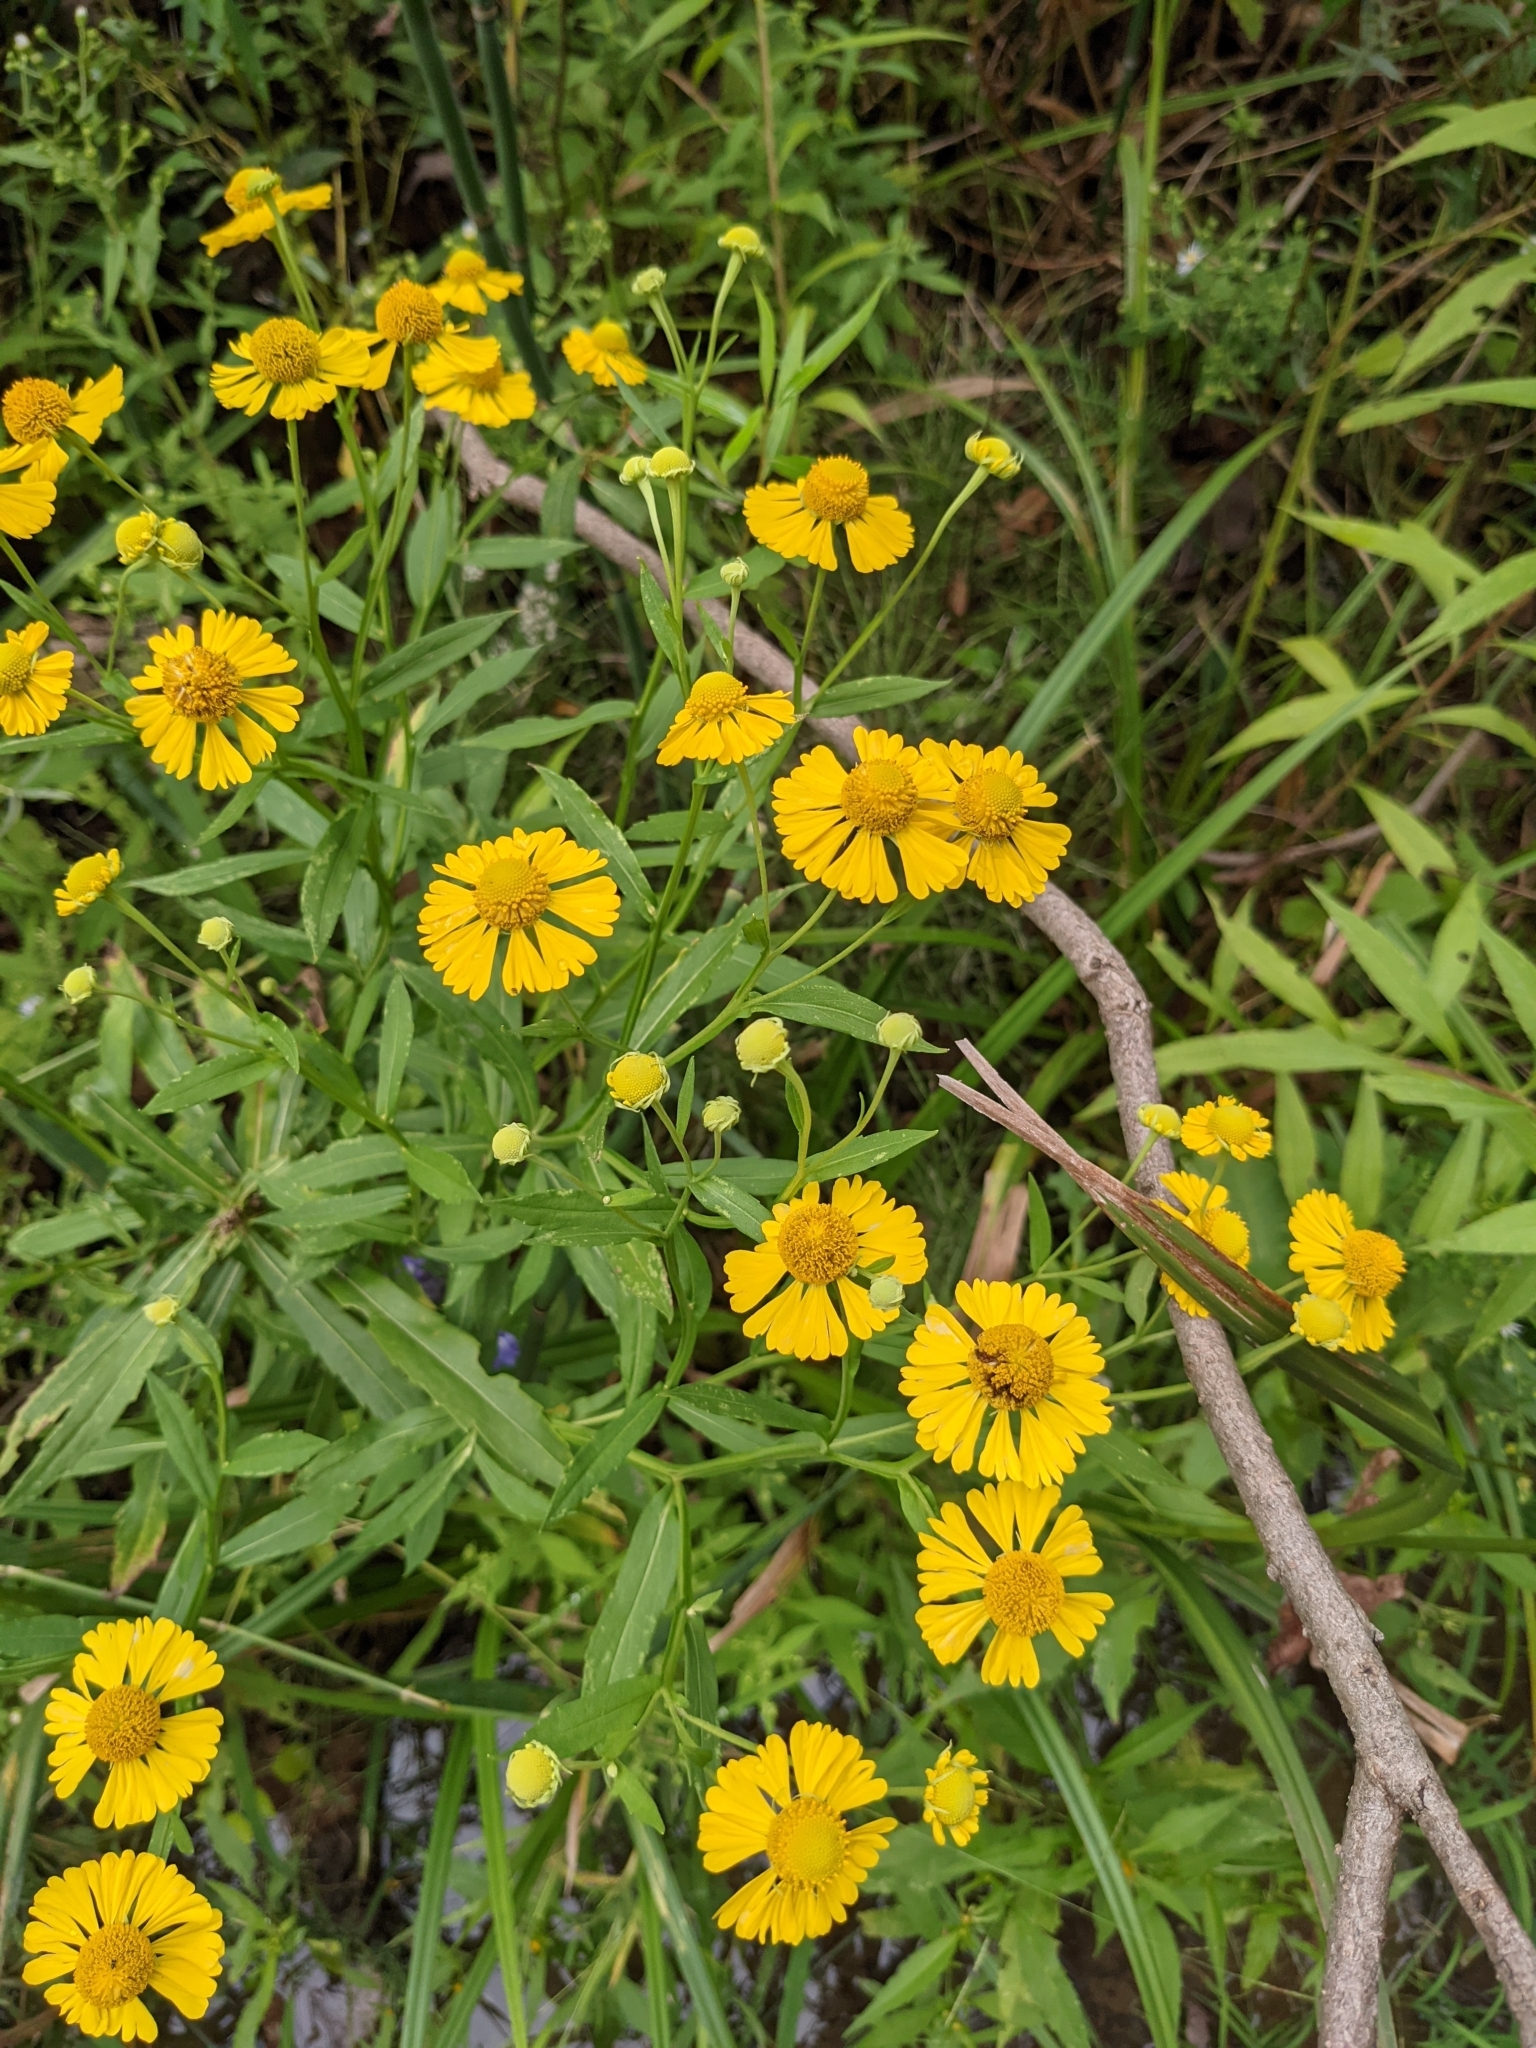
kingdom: Plantae
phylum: Tracheophyta
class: Magnoliopsida
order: Asterales
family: Asteraceae
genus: Helenium
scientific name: Helenium autumnale
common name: Sneezeweed
